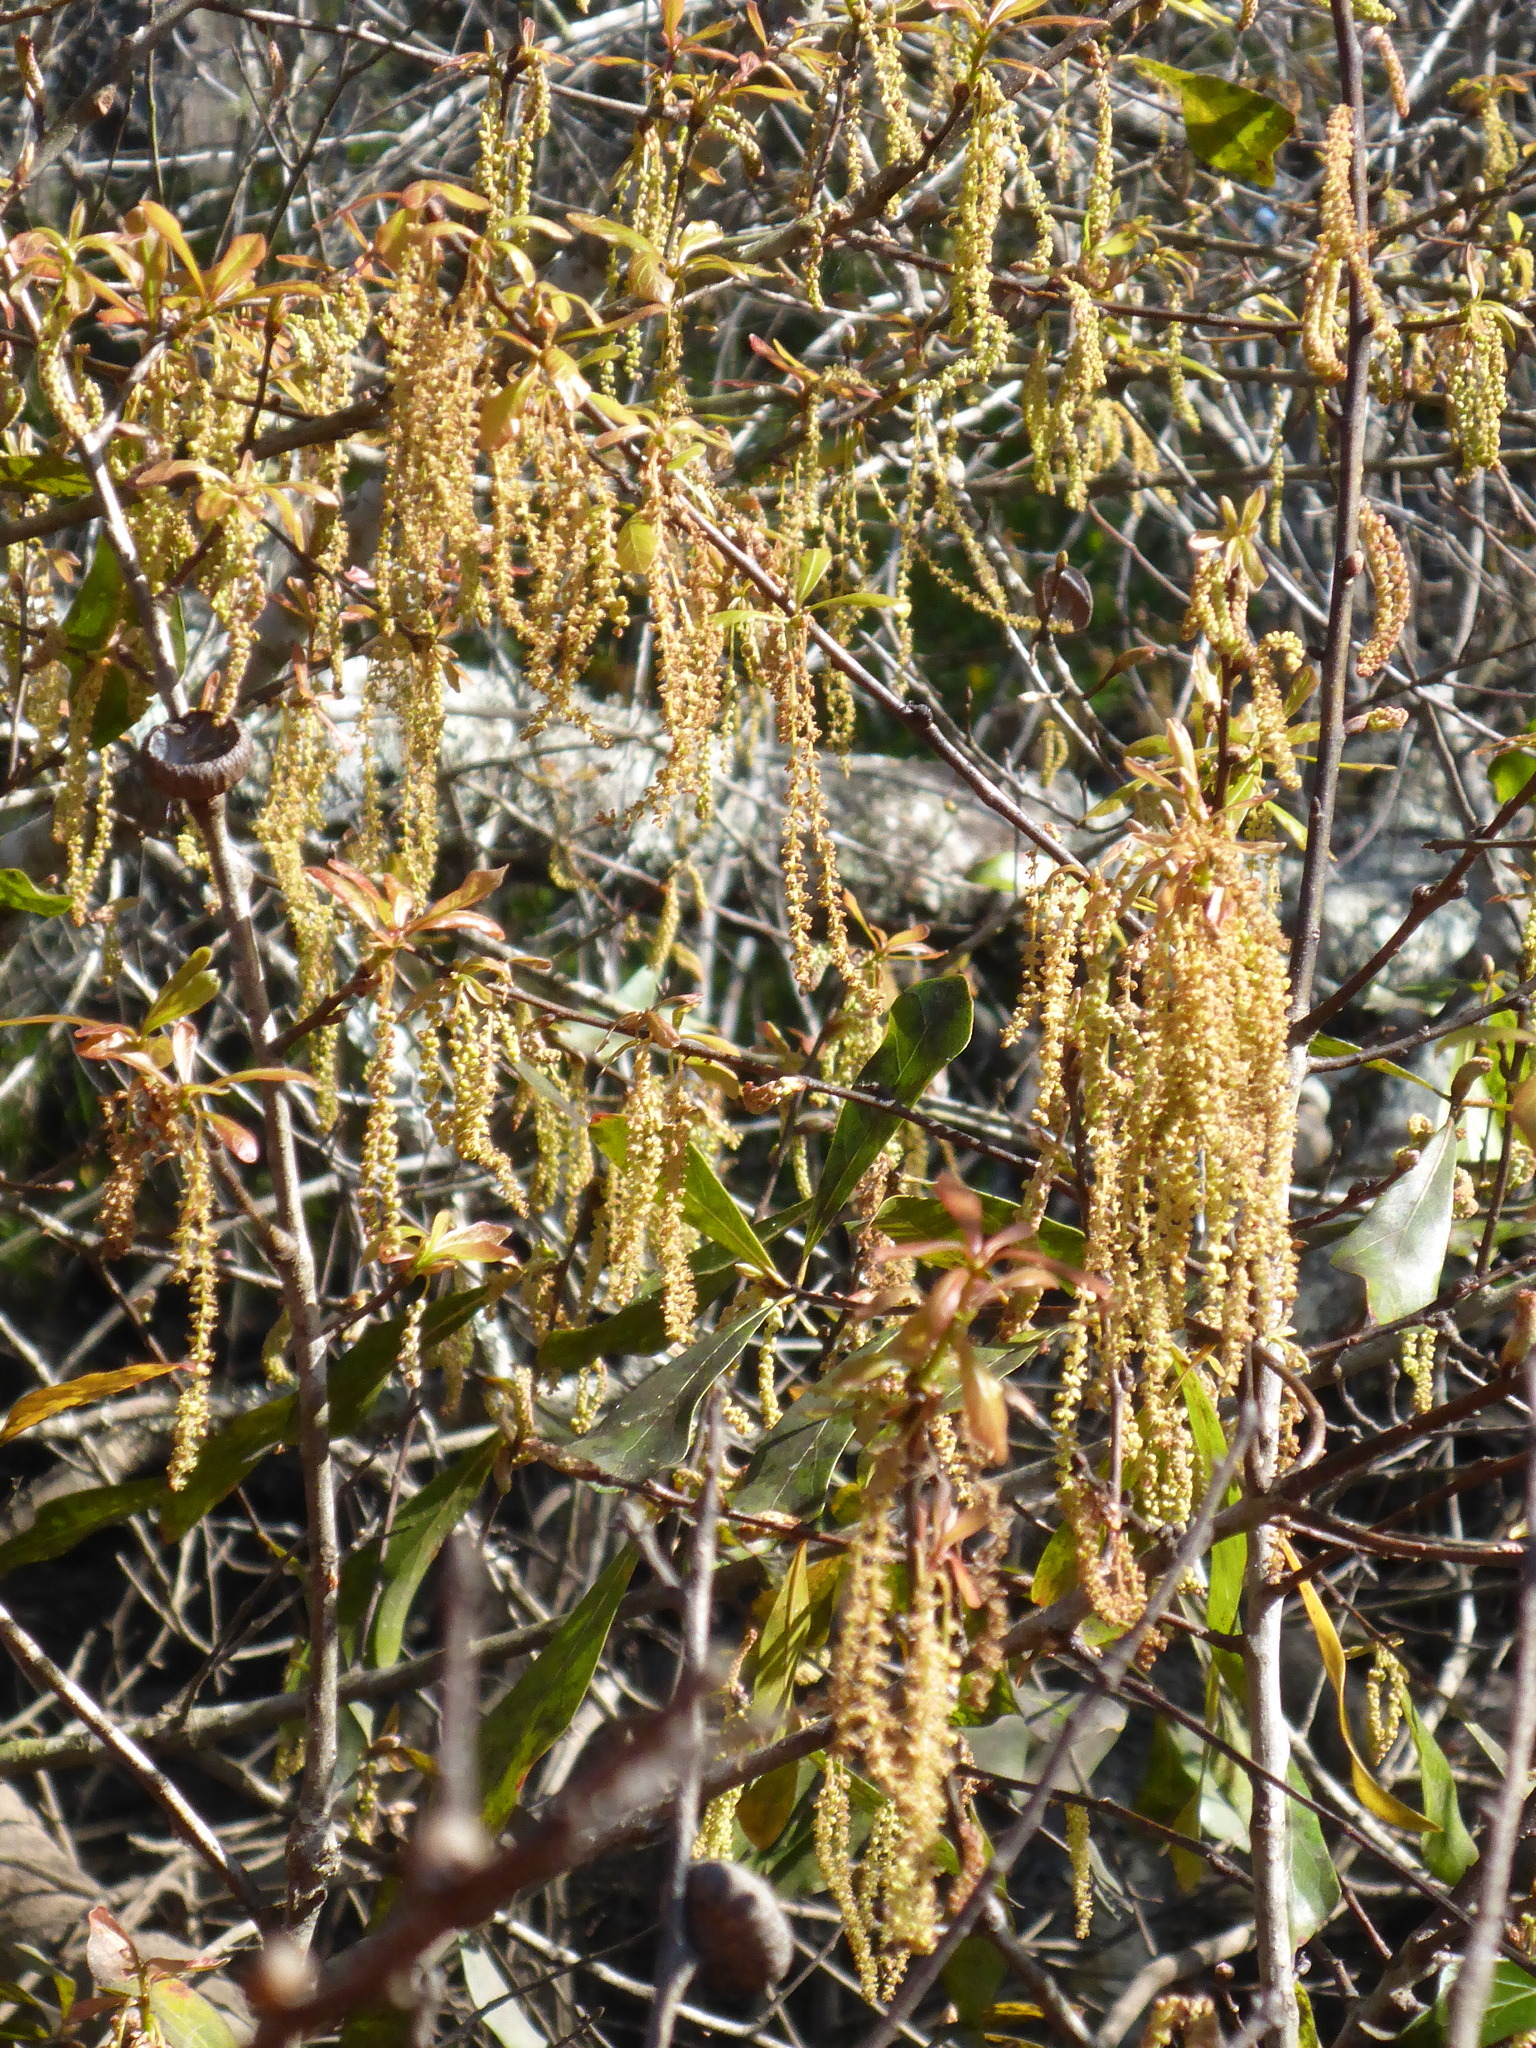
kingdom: Plantae
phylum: Tracheophyta
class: Magnoliopsida
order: Fagales
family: Fagaceae
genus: Quercus
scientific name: Quercus nigra
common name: Water oak
